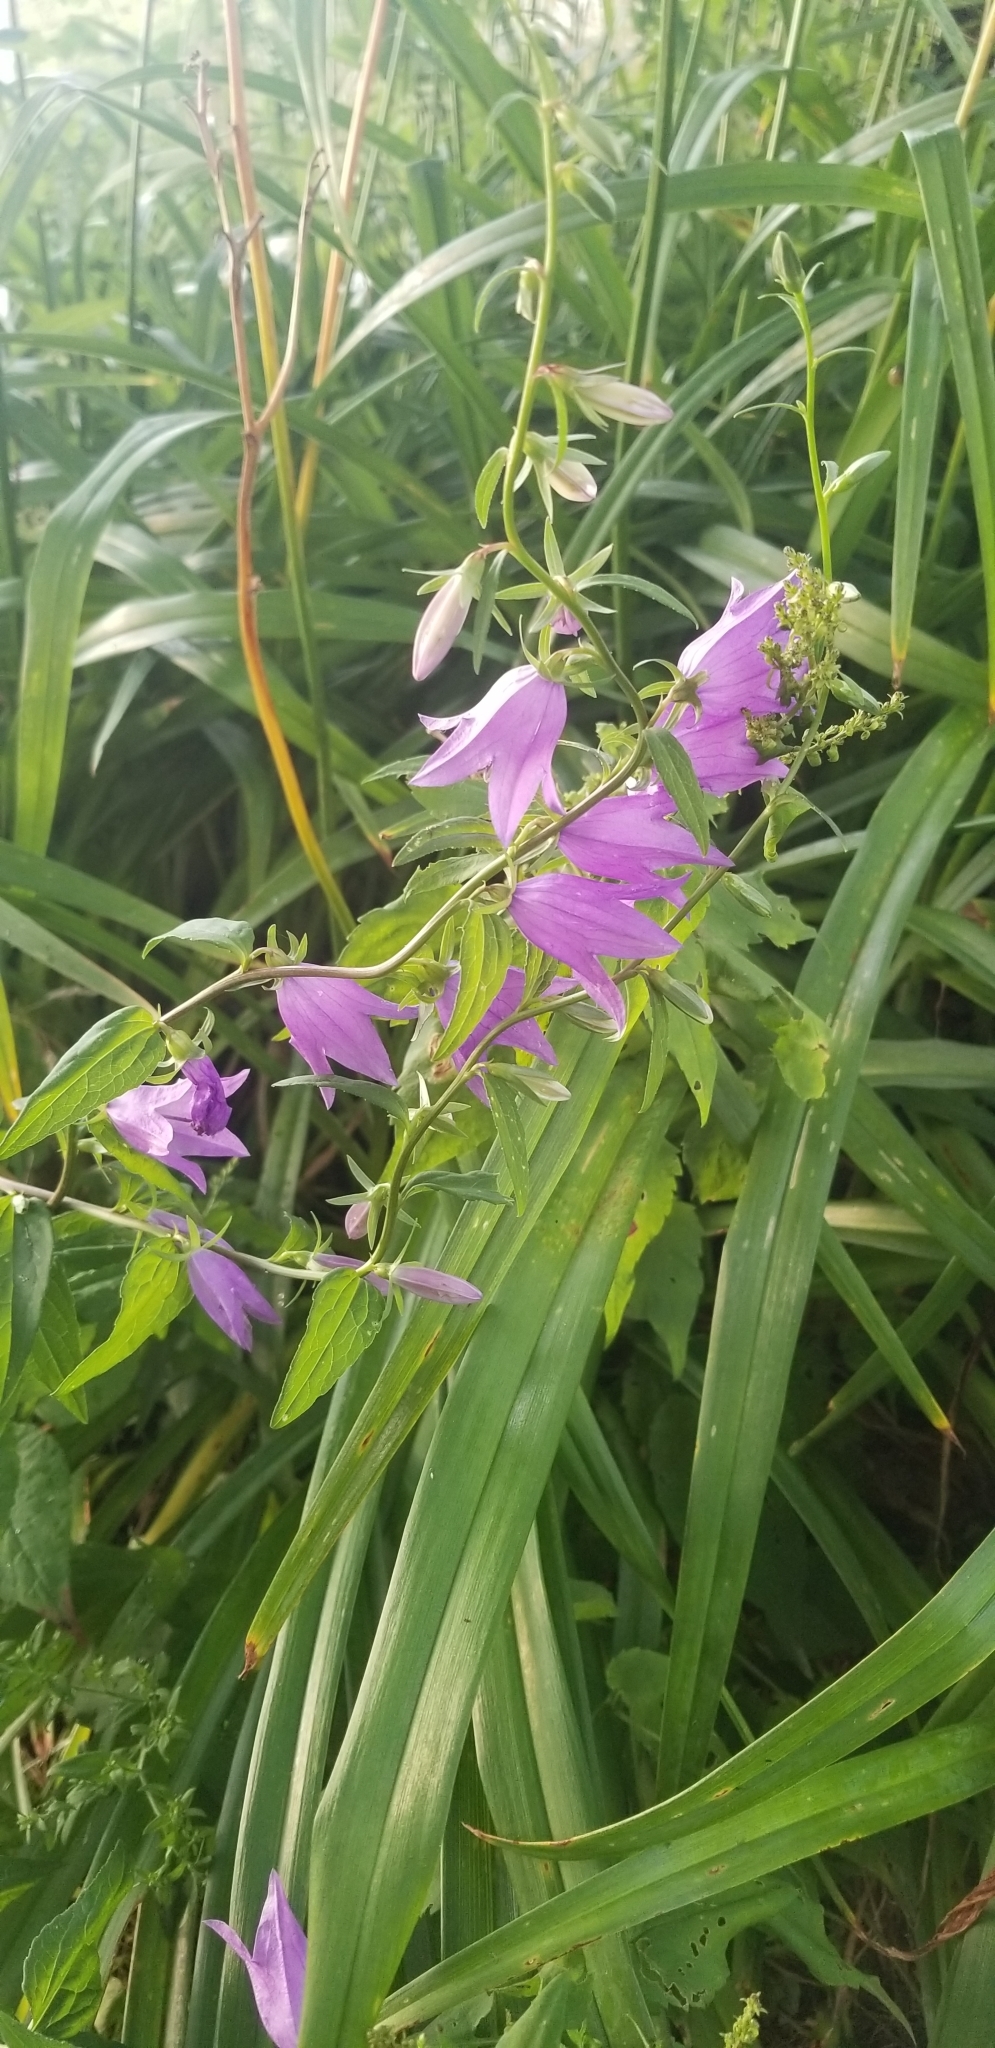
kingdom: Plantae
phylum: Tracheophyta
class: Magnoliopsida
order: Asterales
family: Campanulaceae
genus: Campanula
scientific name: Campanula rapunculoides
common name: Creeping bellflower
